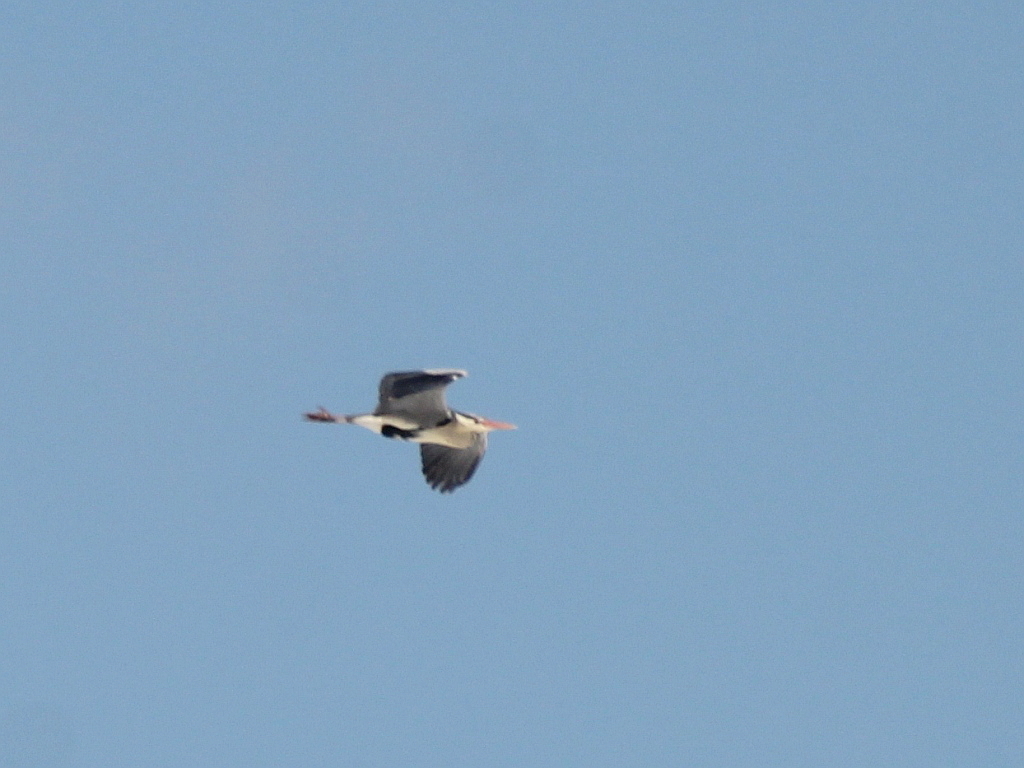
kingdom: Animalia
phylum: Chordata
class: Aves
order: Pelecaniformes
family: Ardeidae
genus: Ardea
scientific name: Ardea cinerea
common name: Grey heron
